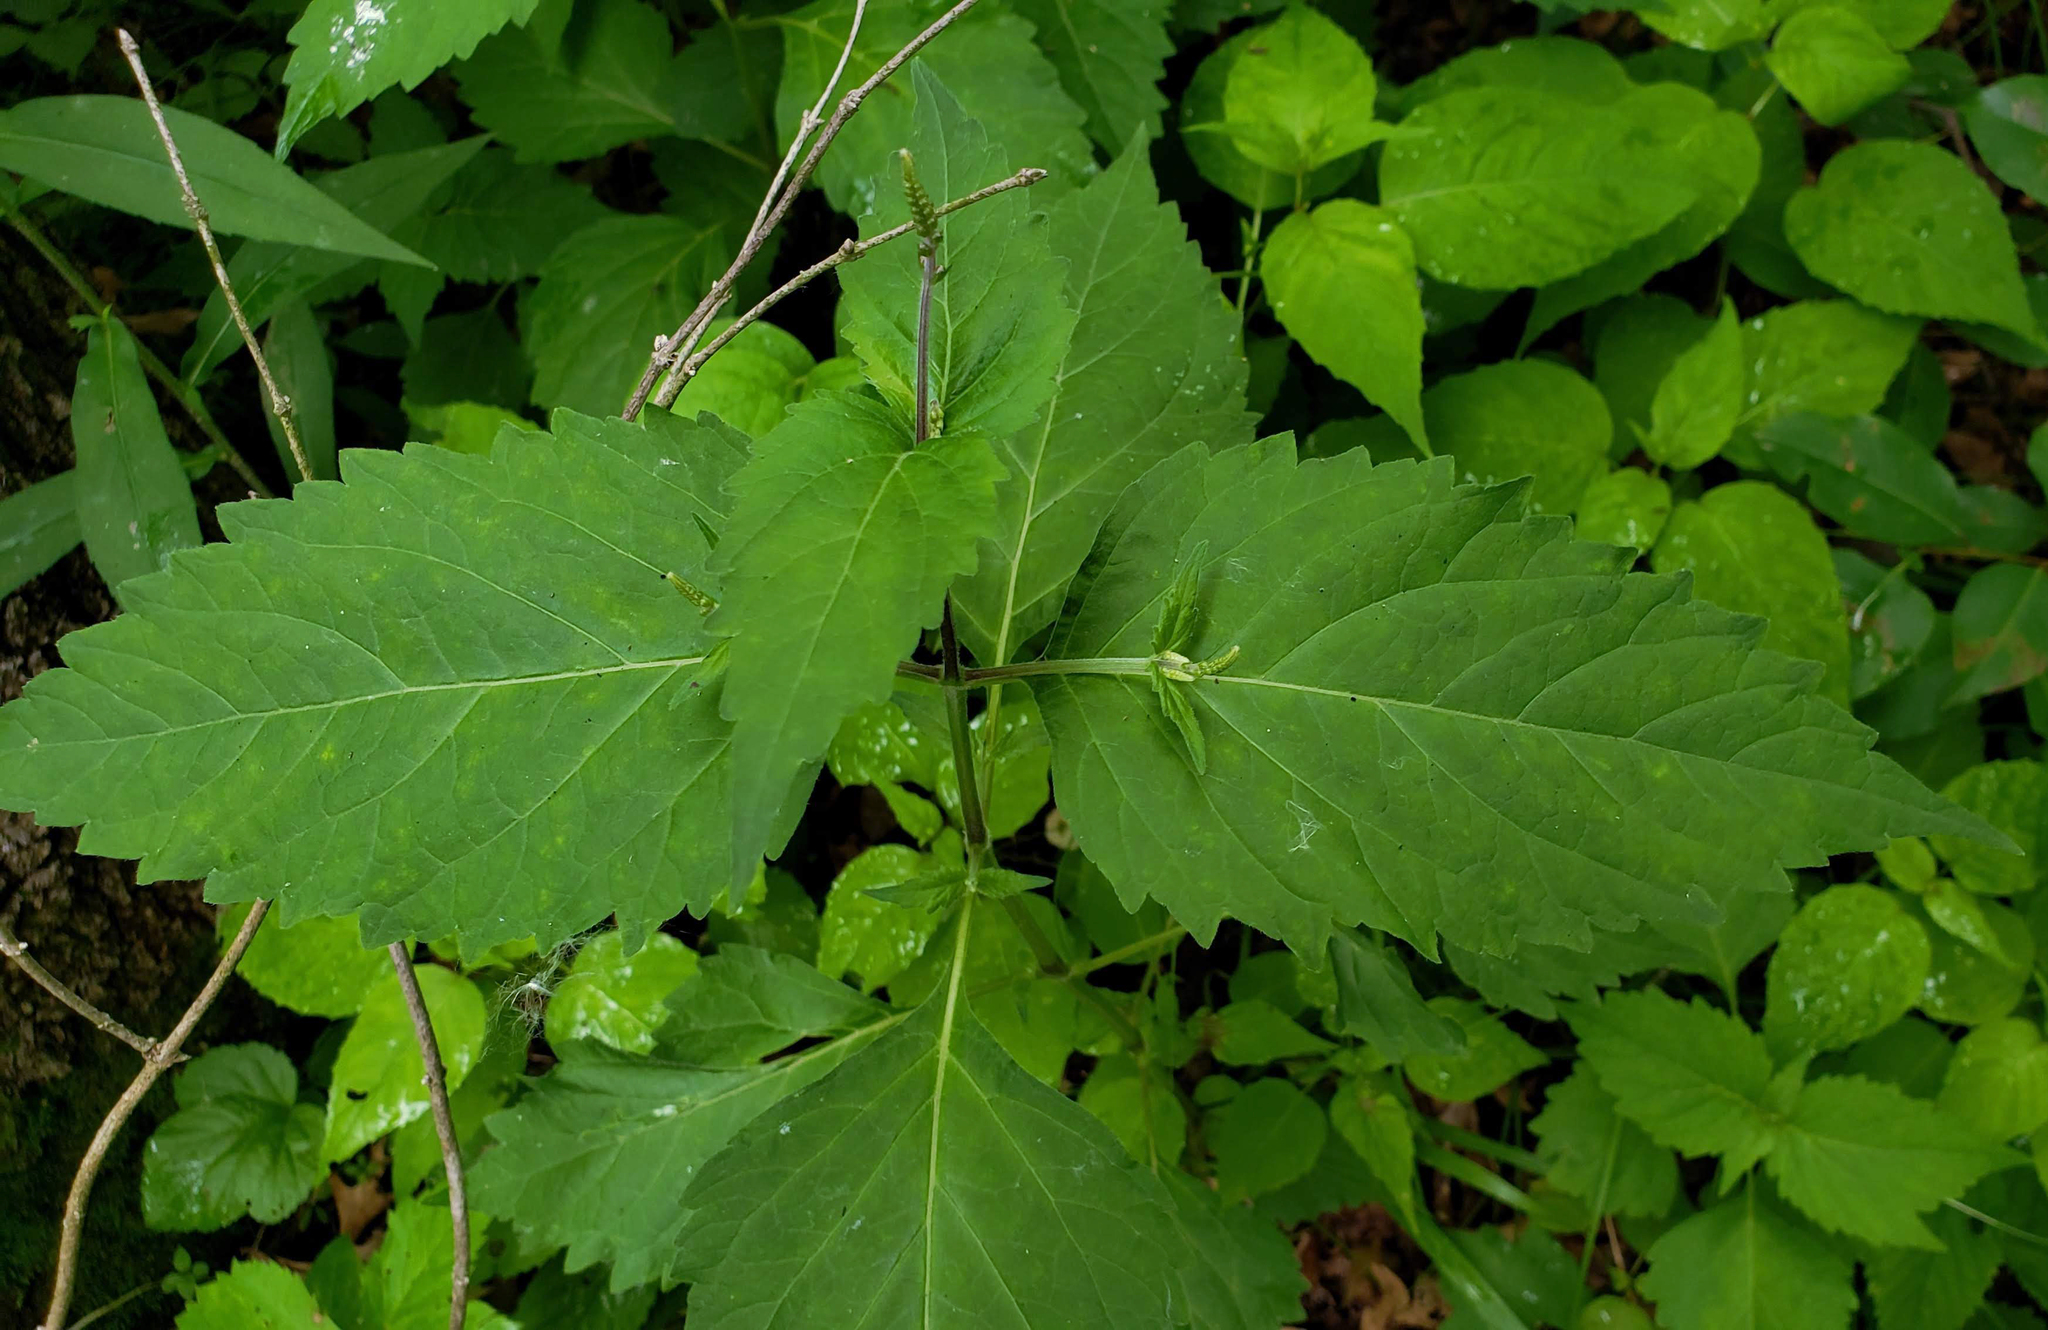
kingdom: Plantae
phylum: Tracheophyta
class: Magnoliopsida
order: Lamiales
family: Phrymaceae
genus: Phryma
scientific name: Phryma leptostachya
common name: American lopseed
